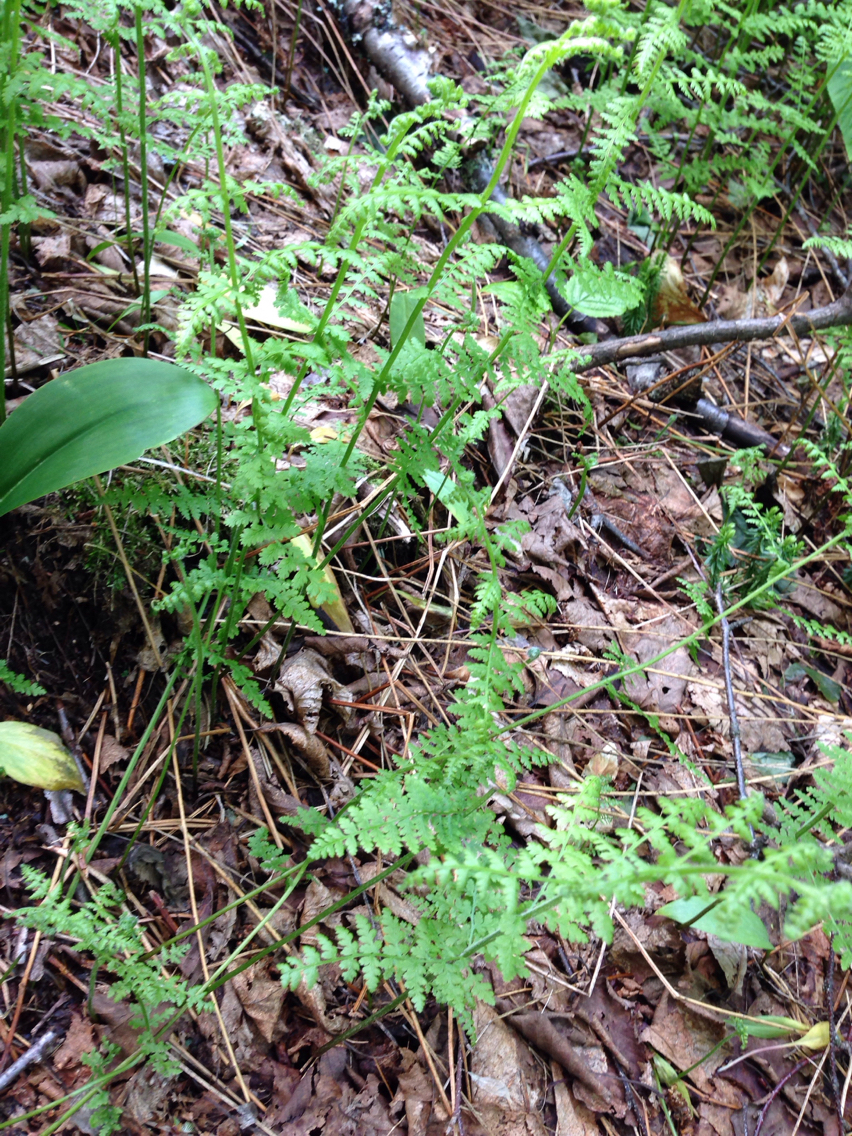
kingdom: Plantae
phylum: Tracheophyta
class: Polypodiopsida
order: Polypodiales
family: Dennstaedtiaceae
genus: Sitobolium
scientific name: Sitobolium punctilobum
